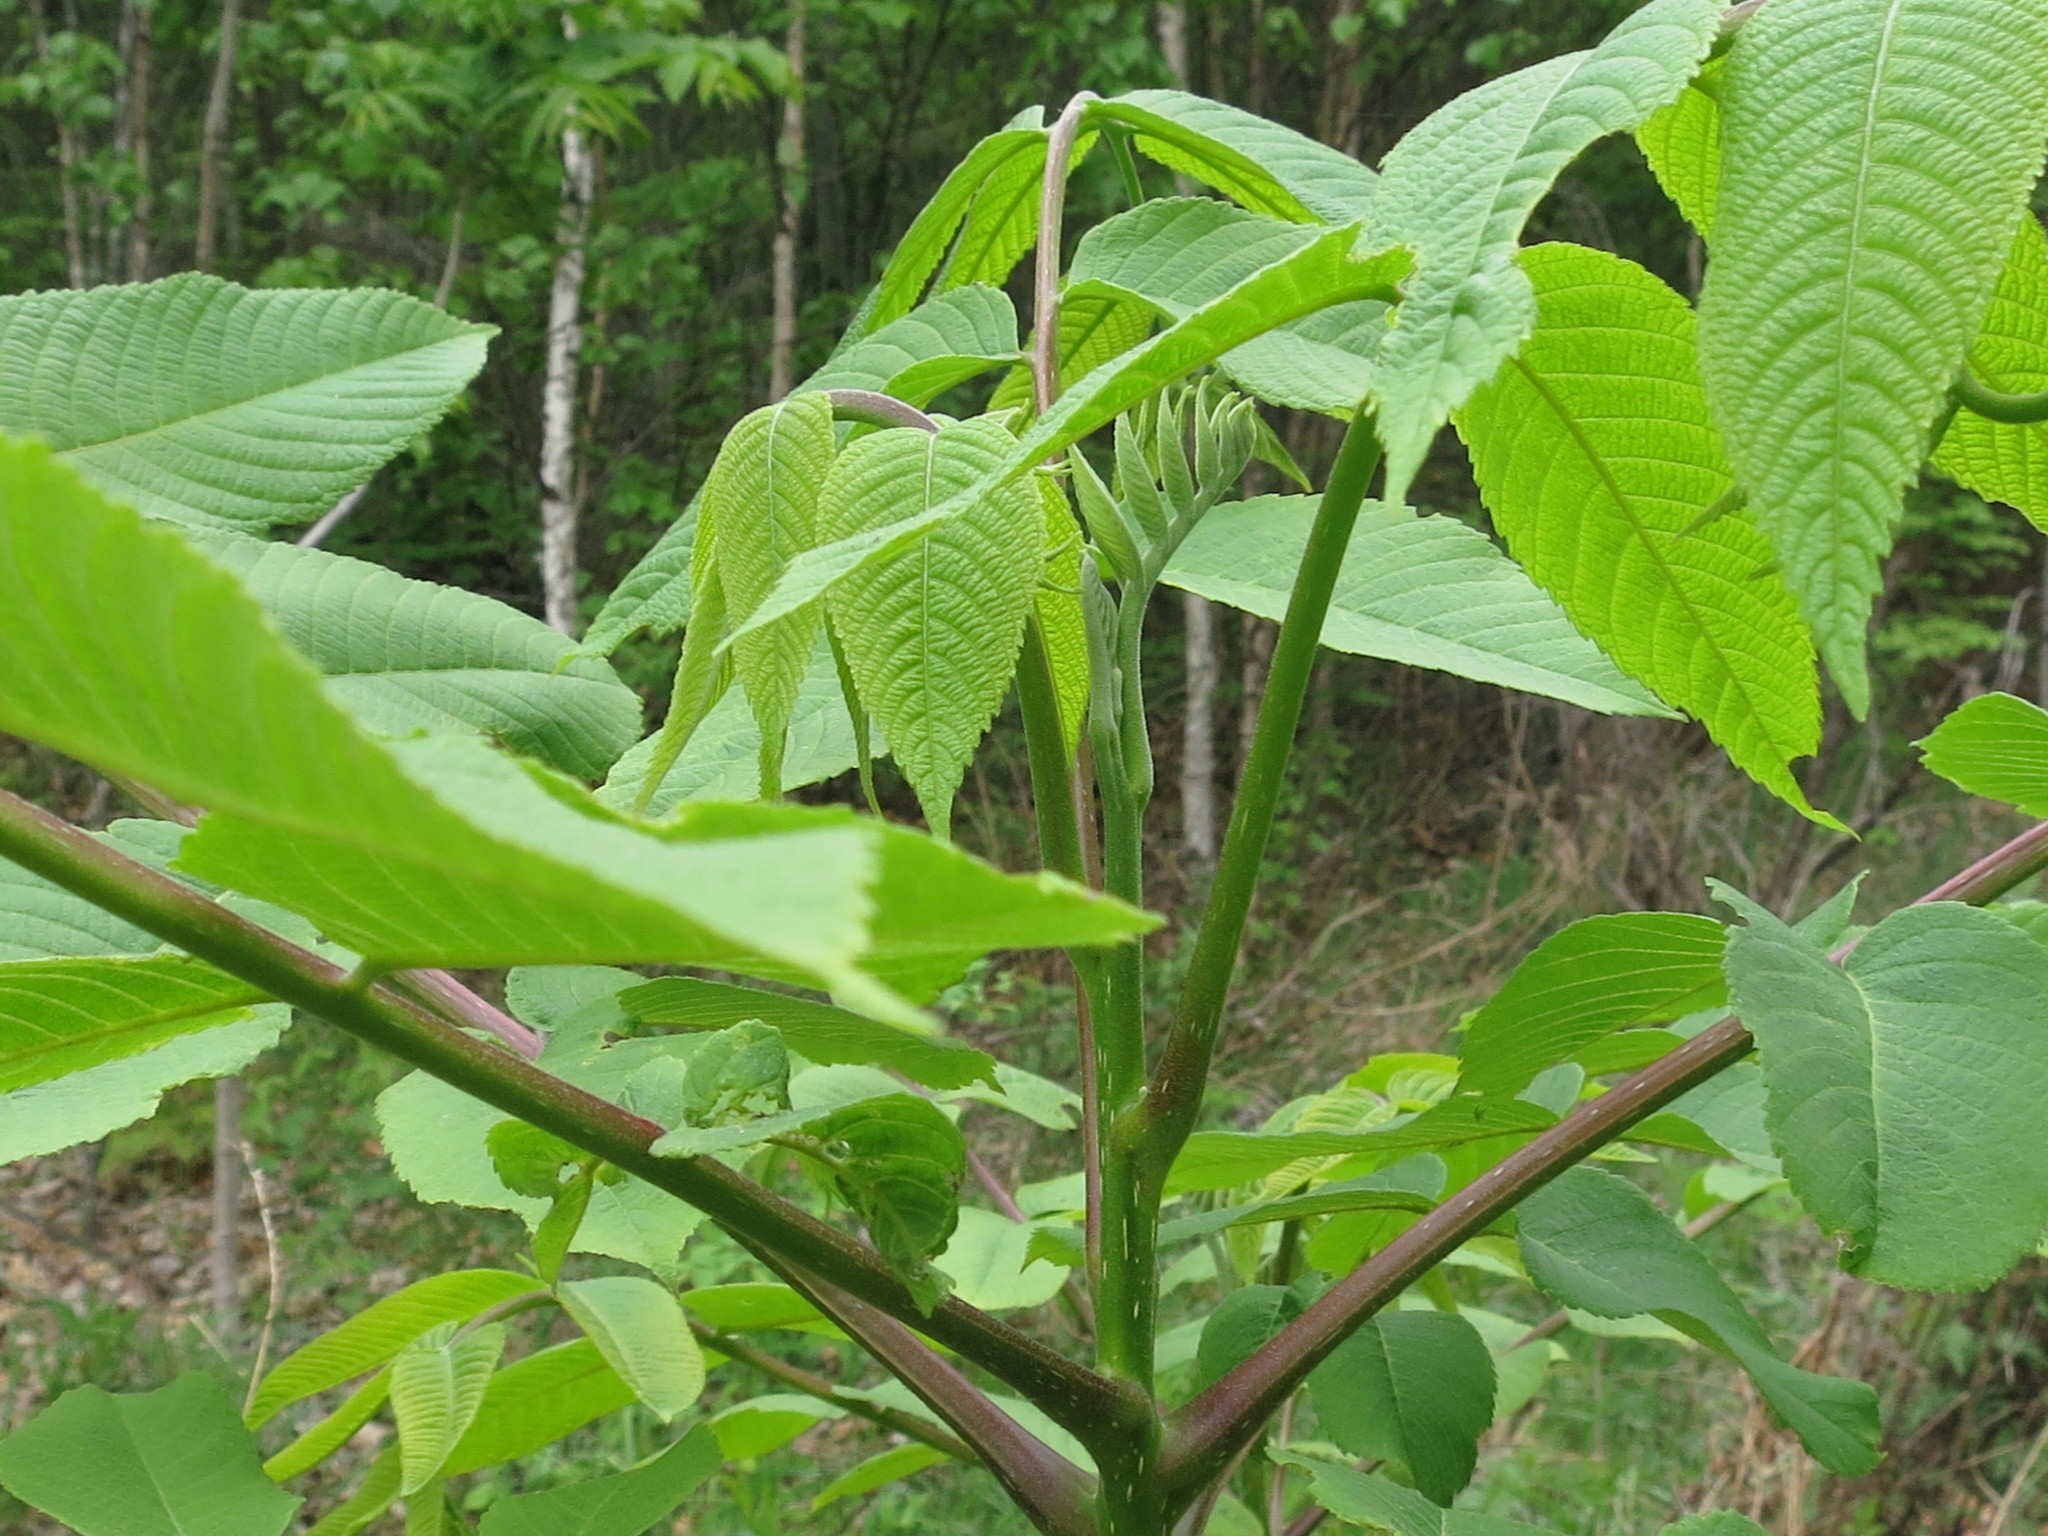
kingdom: Plantae
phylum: Tracheophyta
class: Magnoliopsida
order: Fagales
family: Juglandaceae
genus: Juglans
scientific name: Juglans mandshurica
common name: Manchurian walnut
